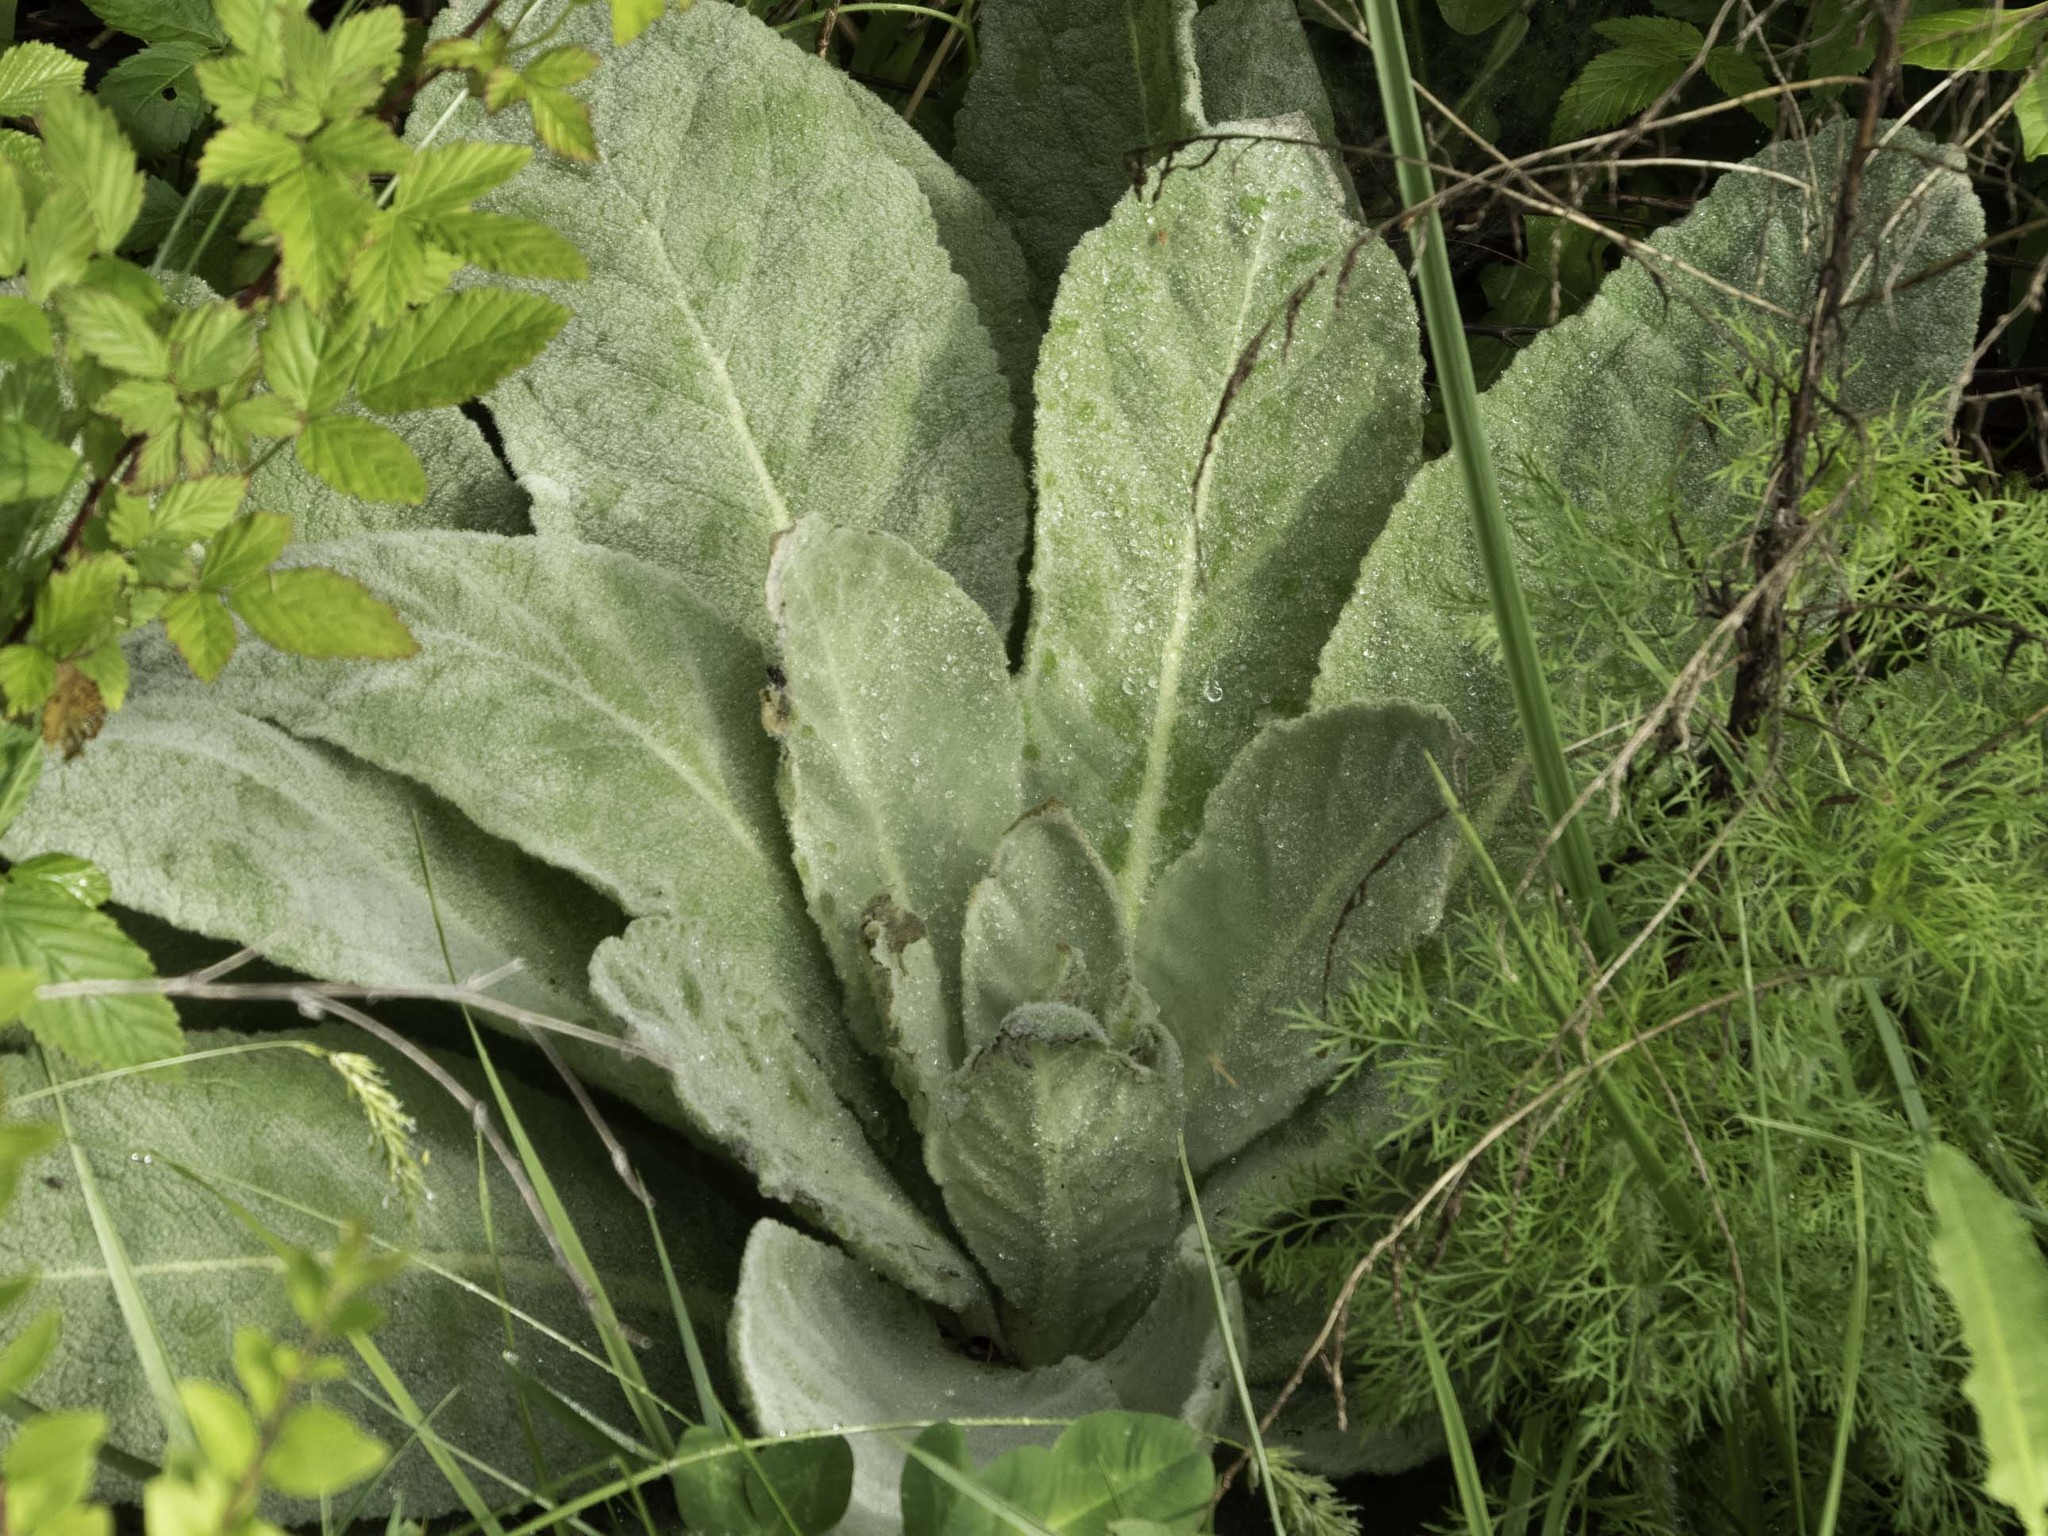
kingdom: Plantae
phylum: Tracheophyta
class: Magnoliopsida
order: Lamiales
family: Scrophulariaceae
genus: Verbascum
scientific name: Verbascum thapsus
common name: Common mullein
